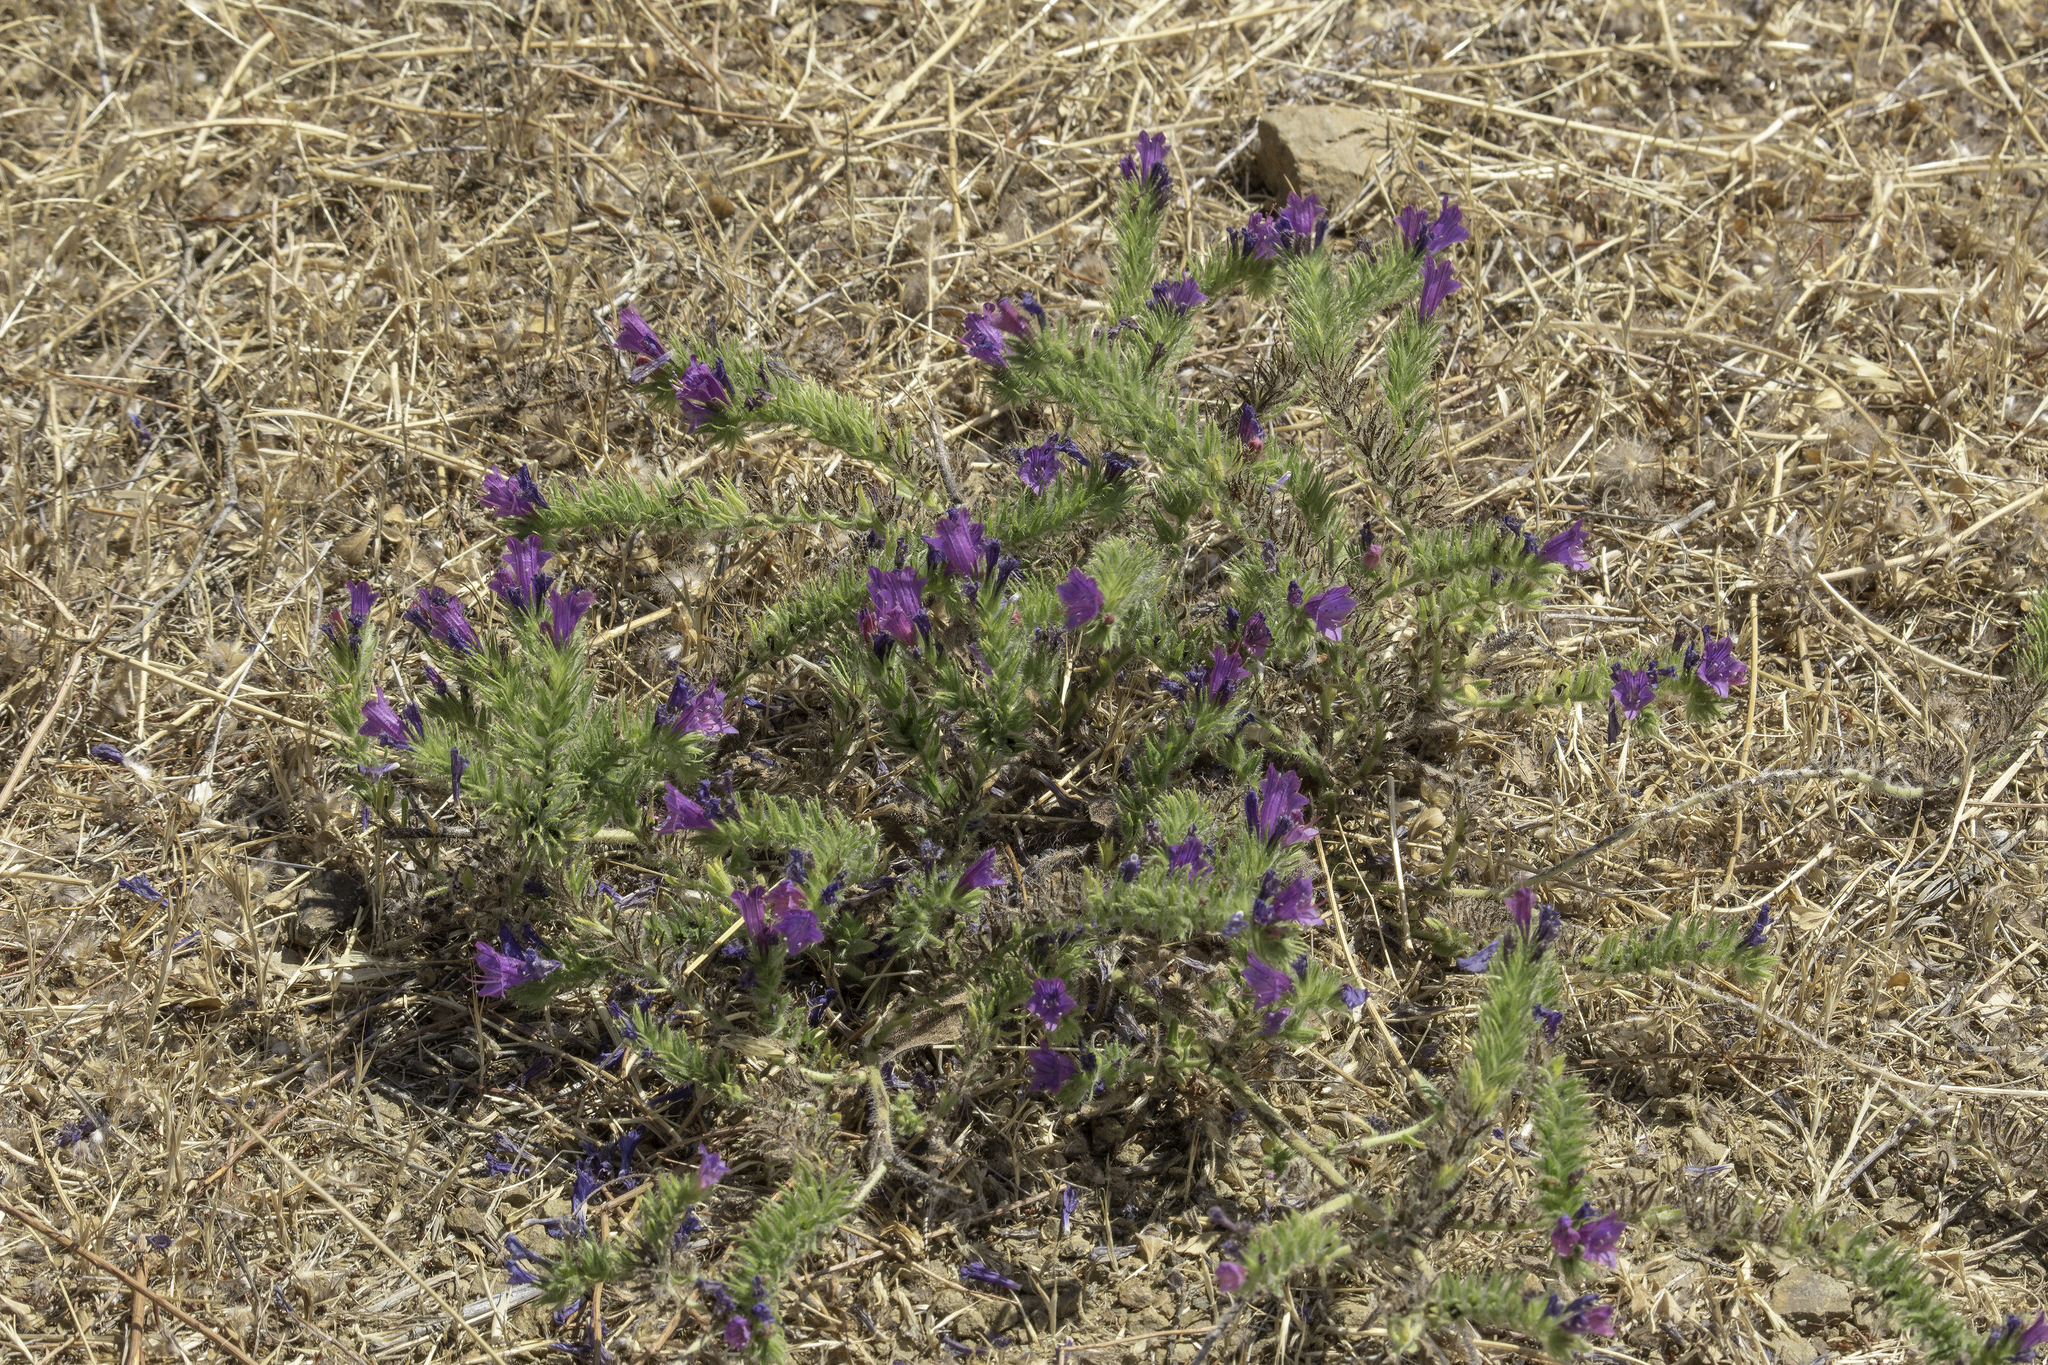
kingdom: Plantae
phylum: Tracheophyta
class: Magnoliopsida
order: Boraginales
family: Boraginaceae
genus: Echium
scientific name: Echium plantagineum
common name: Purple viper's-bugloss
